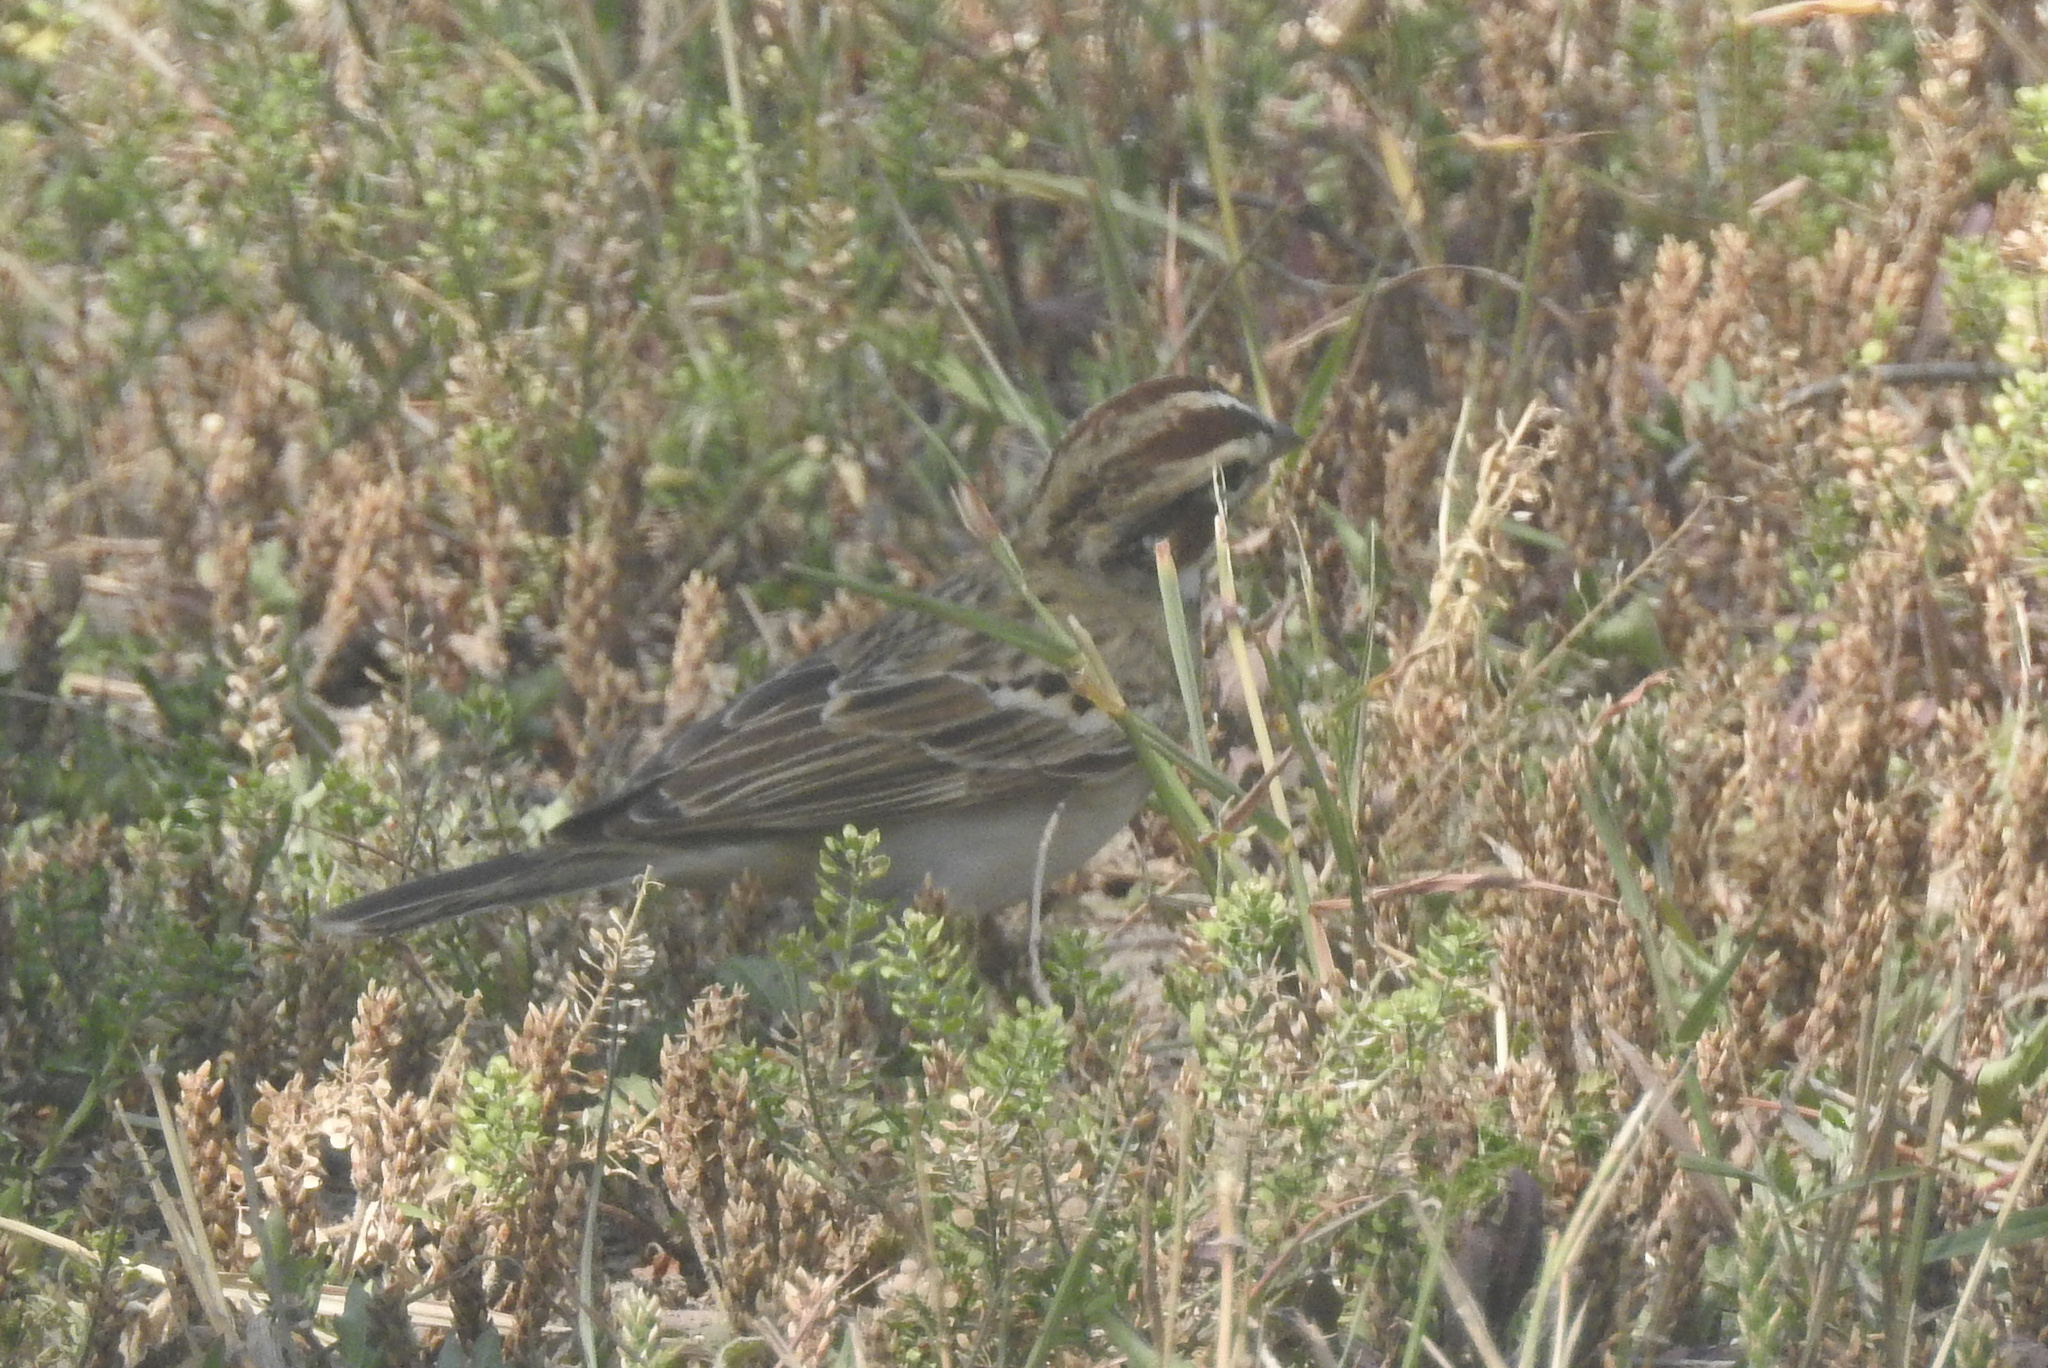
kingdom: Animalia
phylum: Chordata
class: Aves
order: Passeriformes
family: Passerellidae
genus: Chondestes
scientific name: Chondestes grammacus
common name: Lark sparrow
